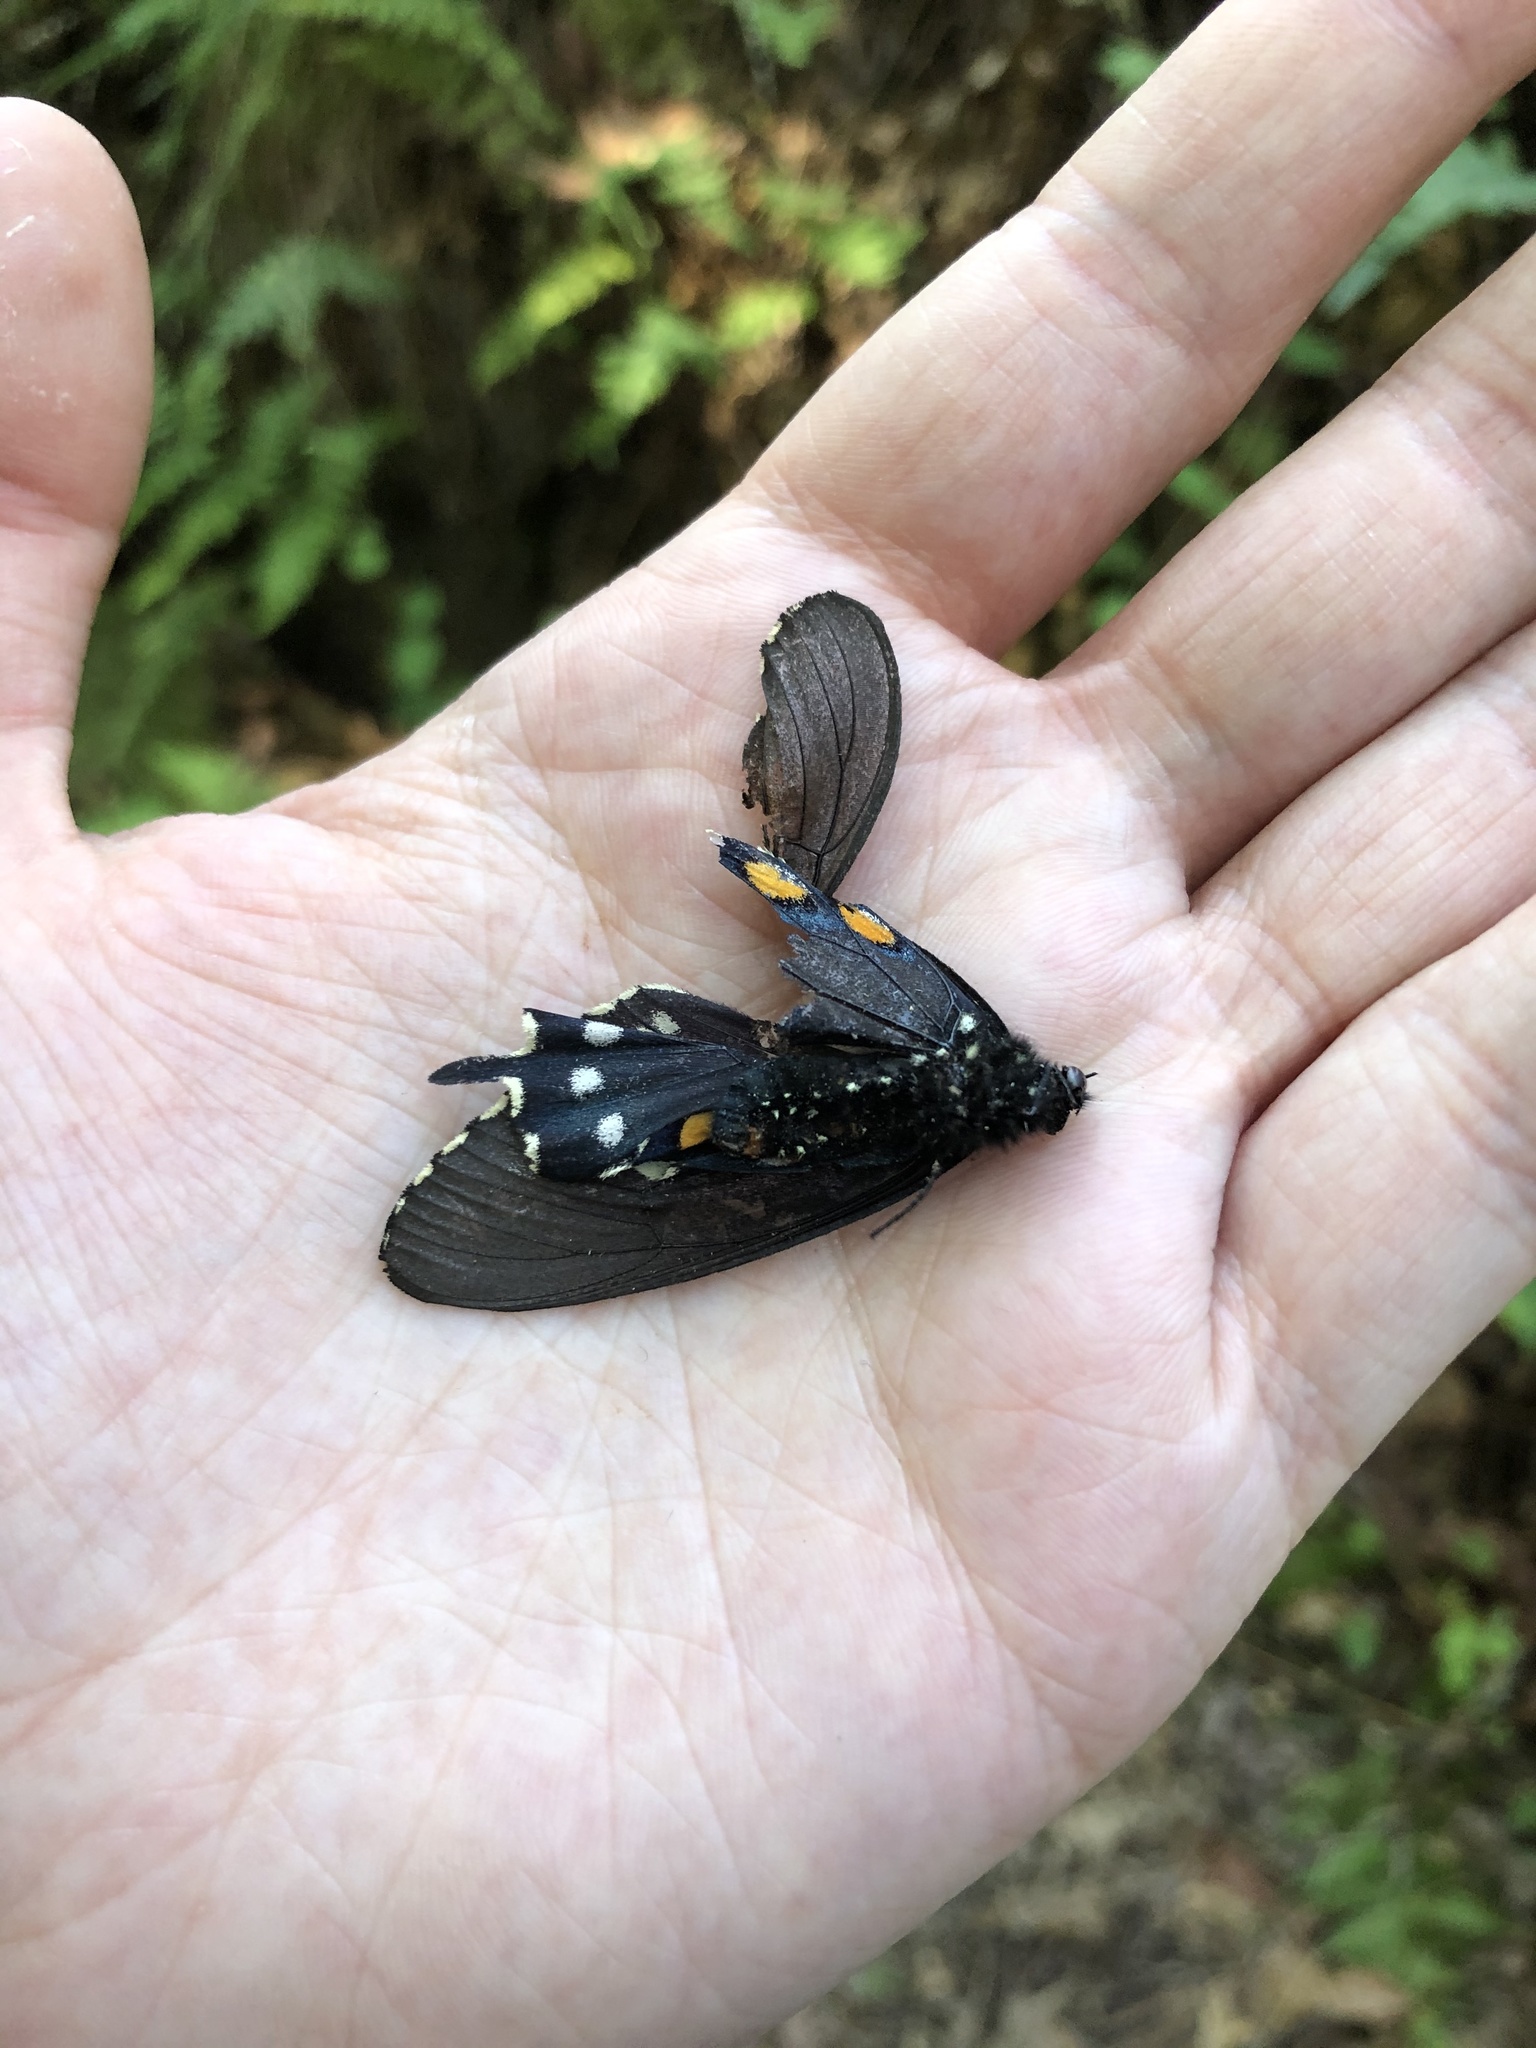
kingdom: Animalia
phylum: Arthropoda
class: Insecta
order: Lepidoptera
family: Papilionidae
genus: Battus
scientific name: Battus philenor
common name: Pipevine swallowtail
